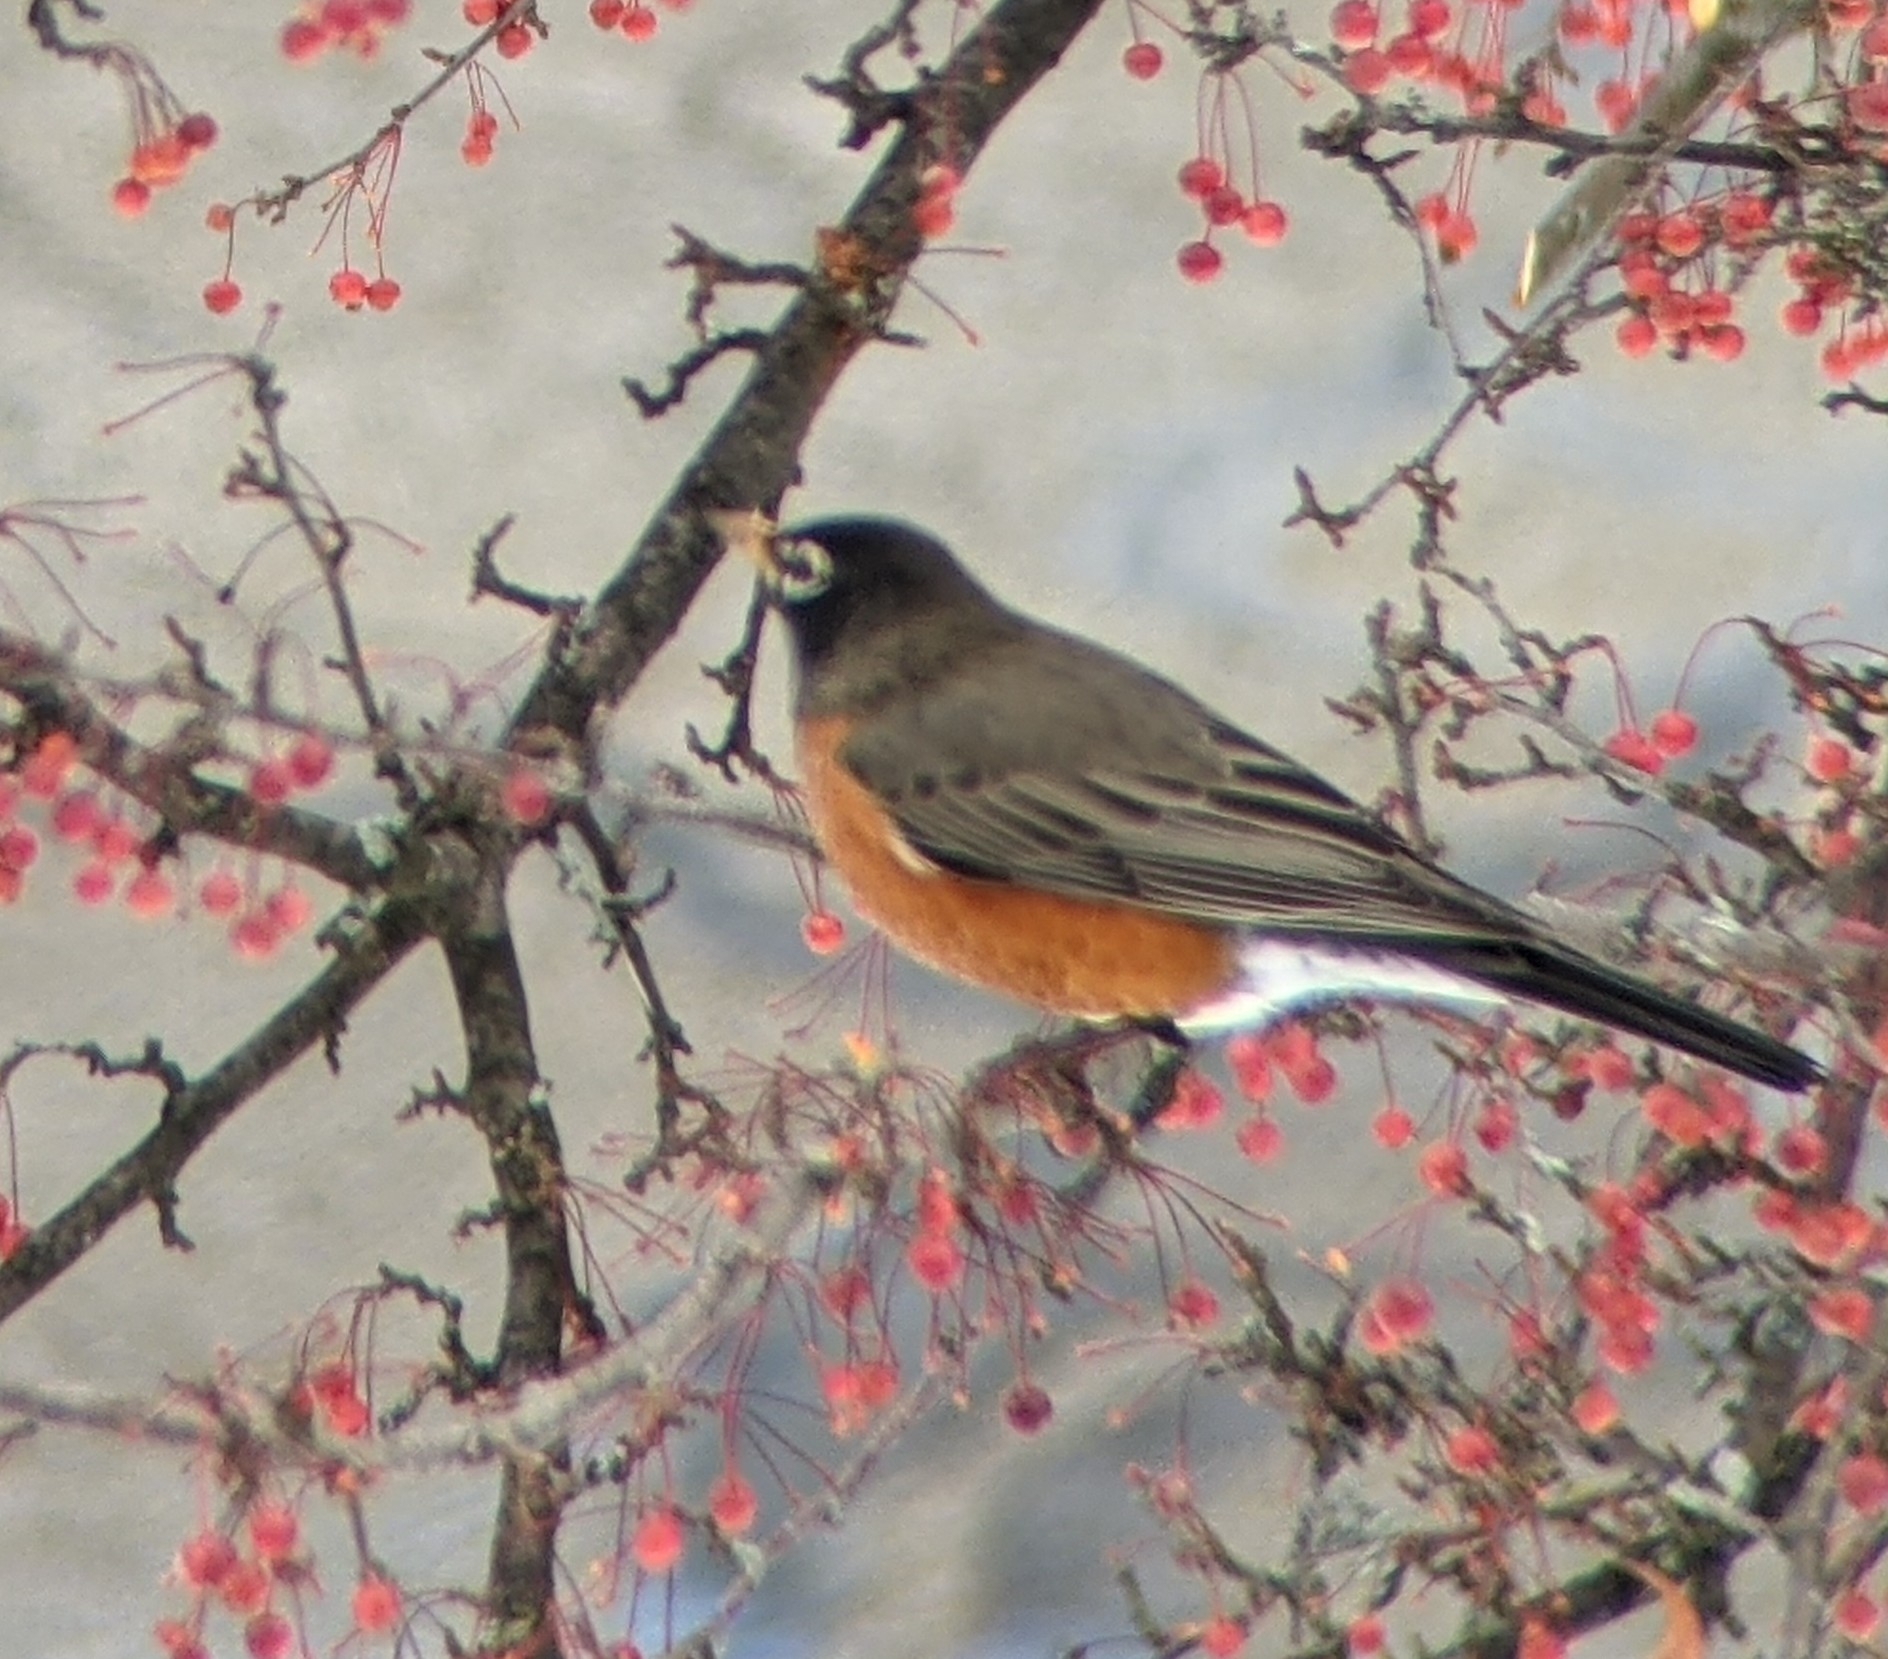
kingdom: Animalia
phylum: Chordata
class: Aves
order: Passeriformes
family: Turdidae
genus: Turdus
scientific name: Turdus migratorius
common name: American robin
